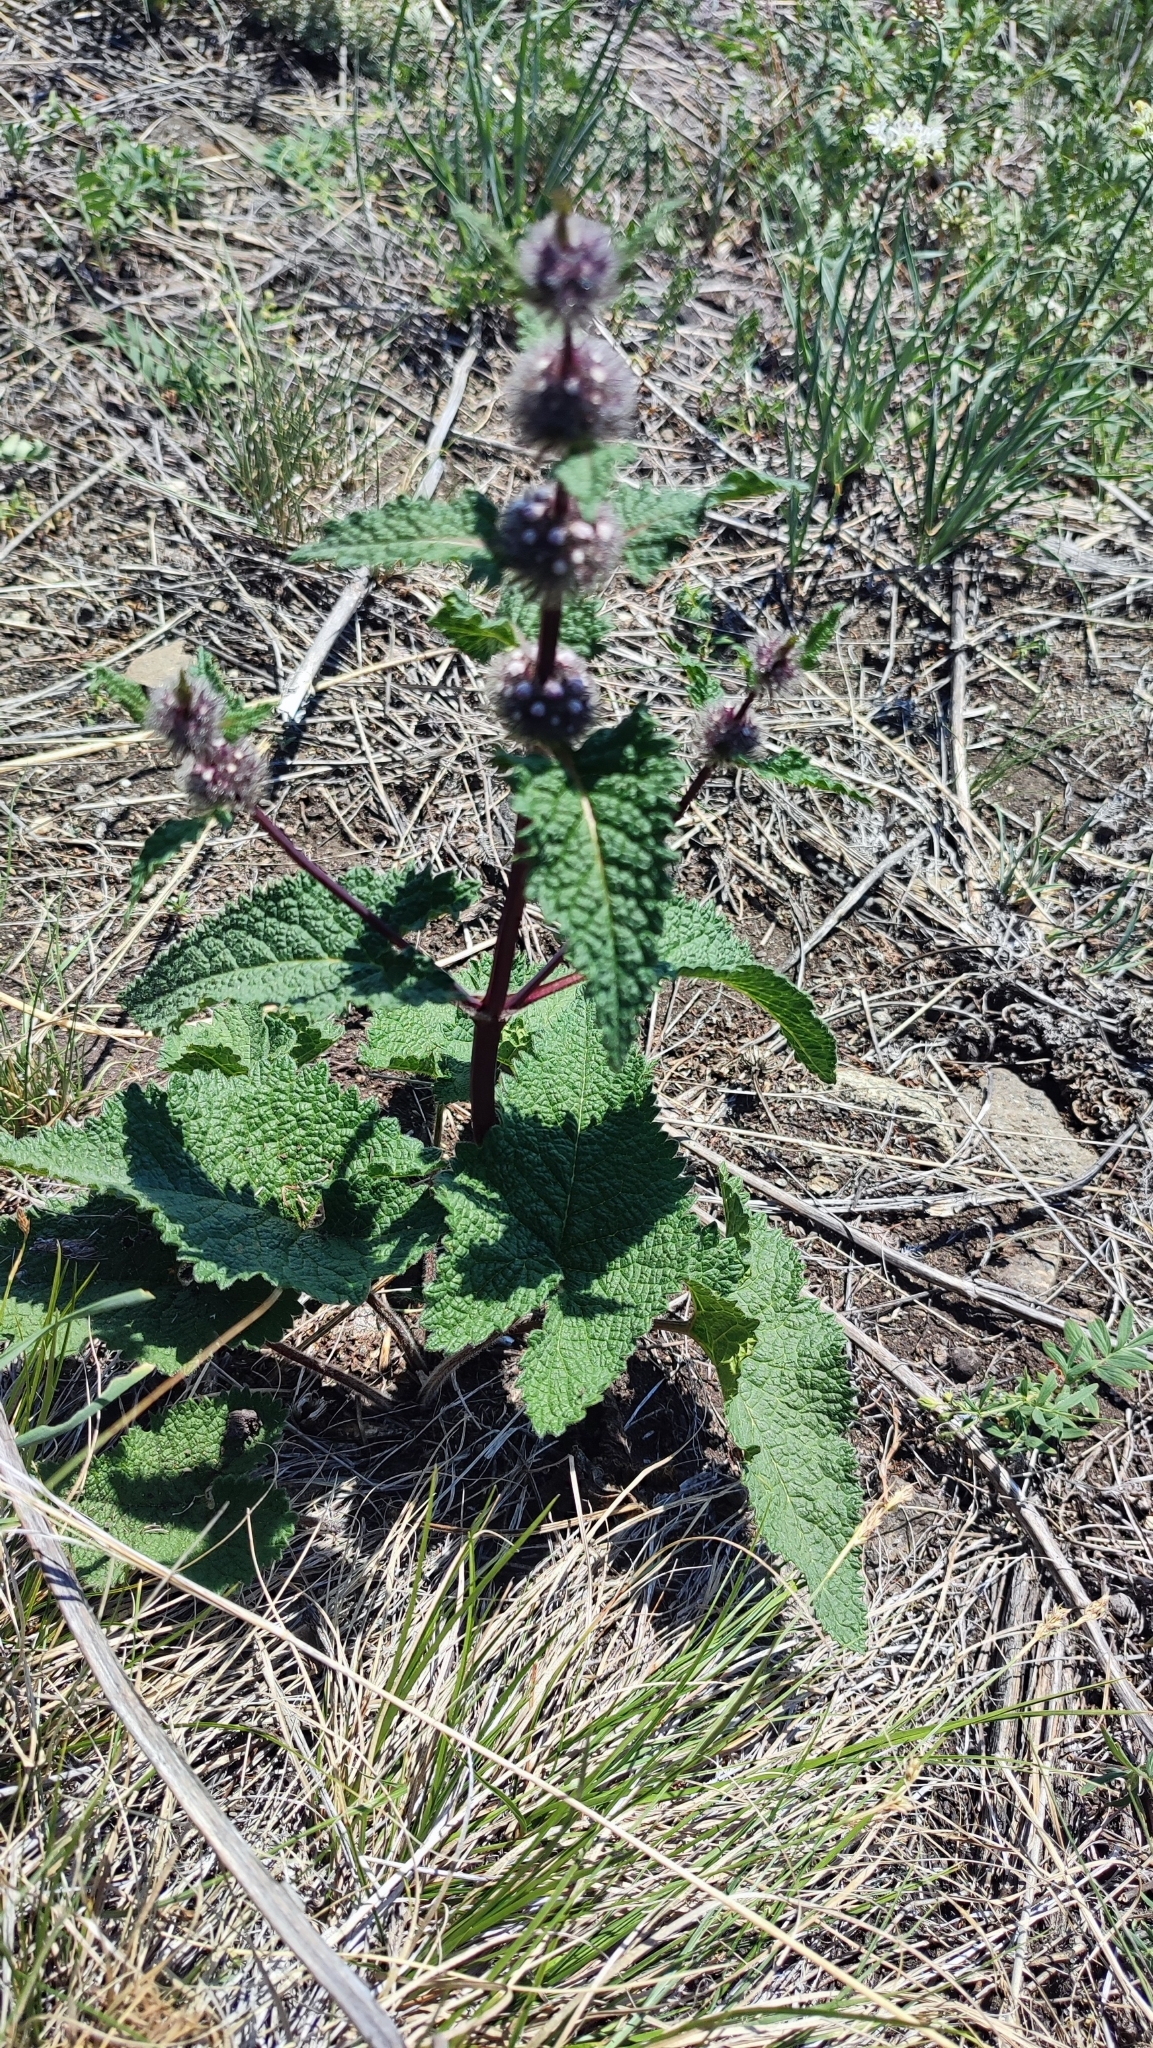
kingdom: Plantae
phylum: Tracheophyta
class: Magnoliopsida
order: Lamiales
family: Lamiaceae
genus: Phlomoides
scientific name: Phlomoides tuberosa
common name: Tuberous jerusalem sage
